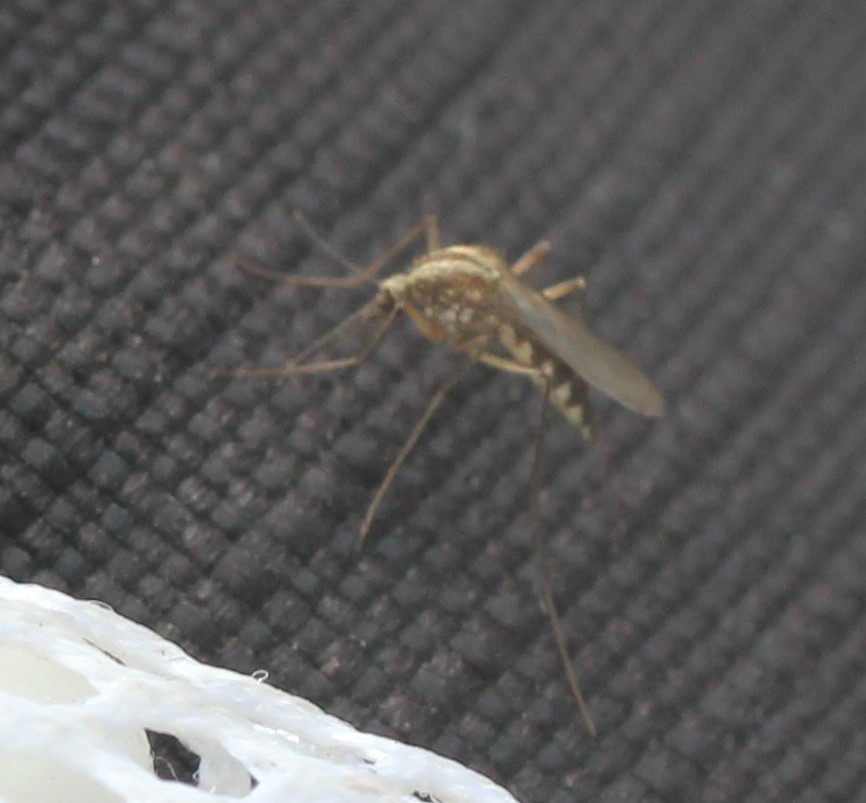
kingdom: Animalia
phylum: Arthropoda
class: Insecta
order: Diptera
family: Culicidae
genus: Aedes
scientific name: Aedes trivittatus
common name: Plains floodwater mosquito
